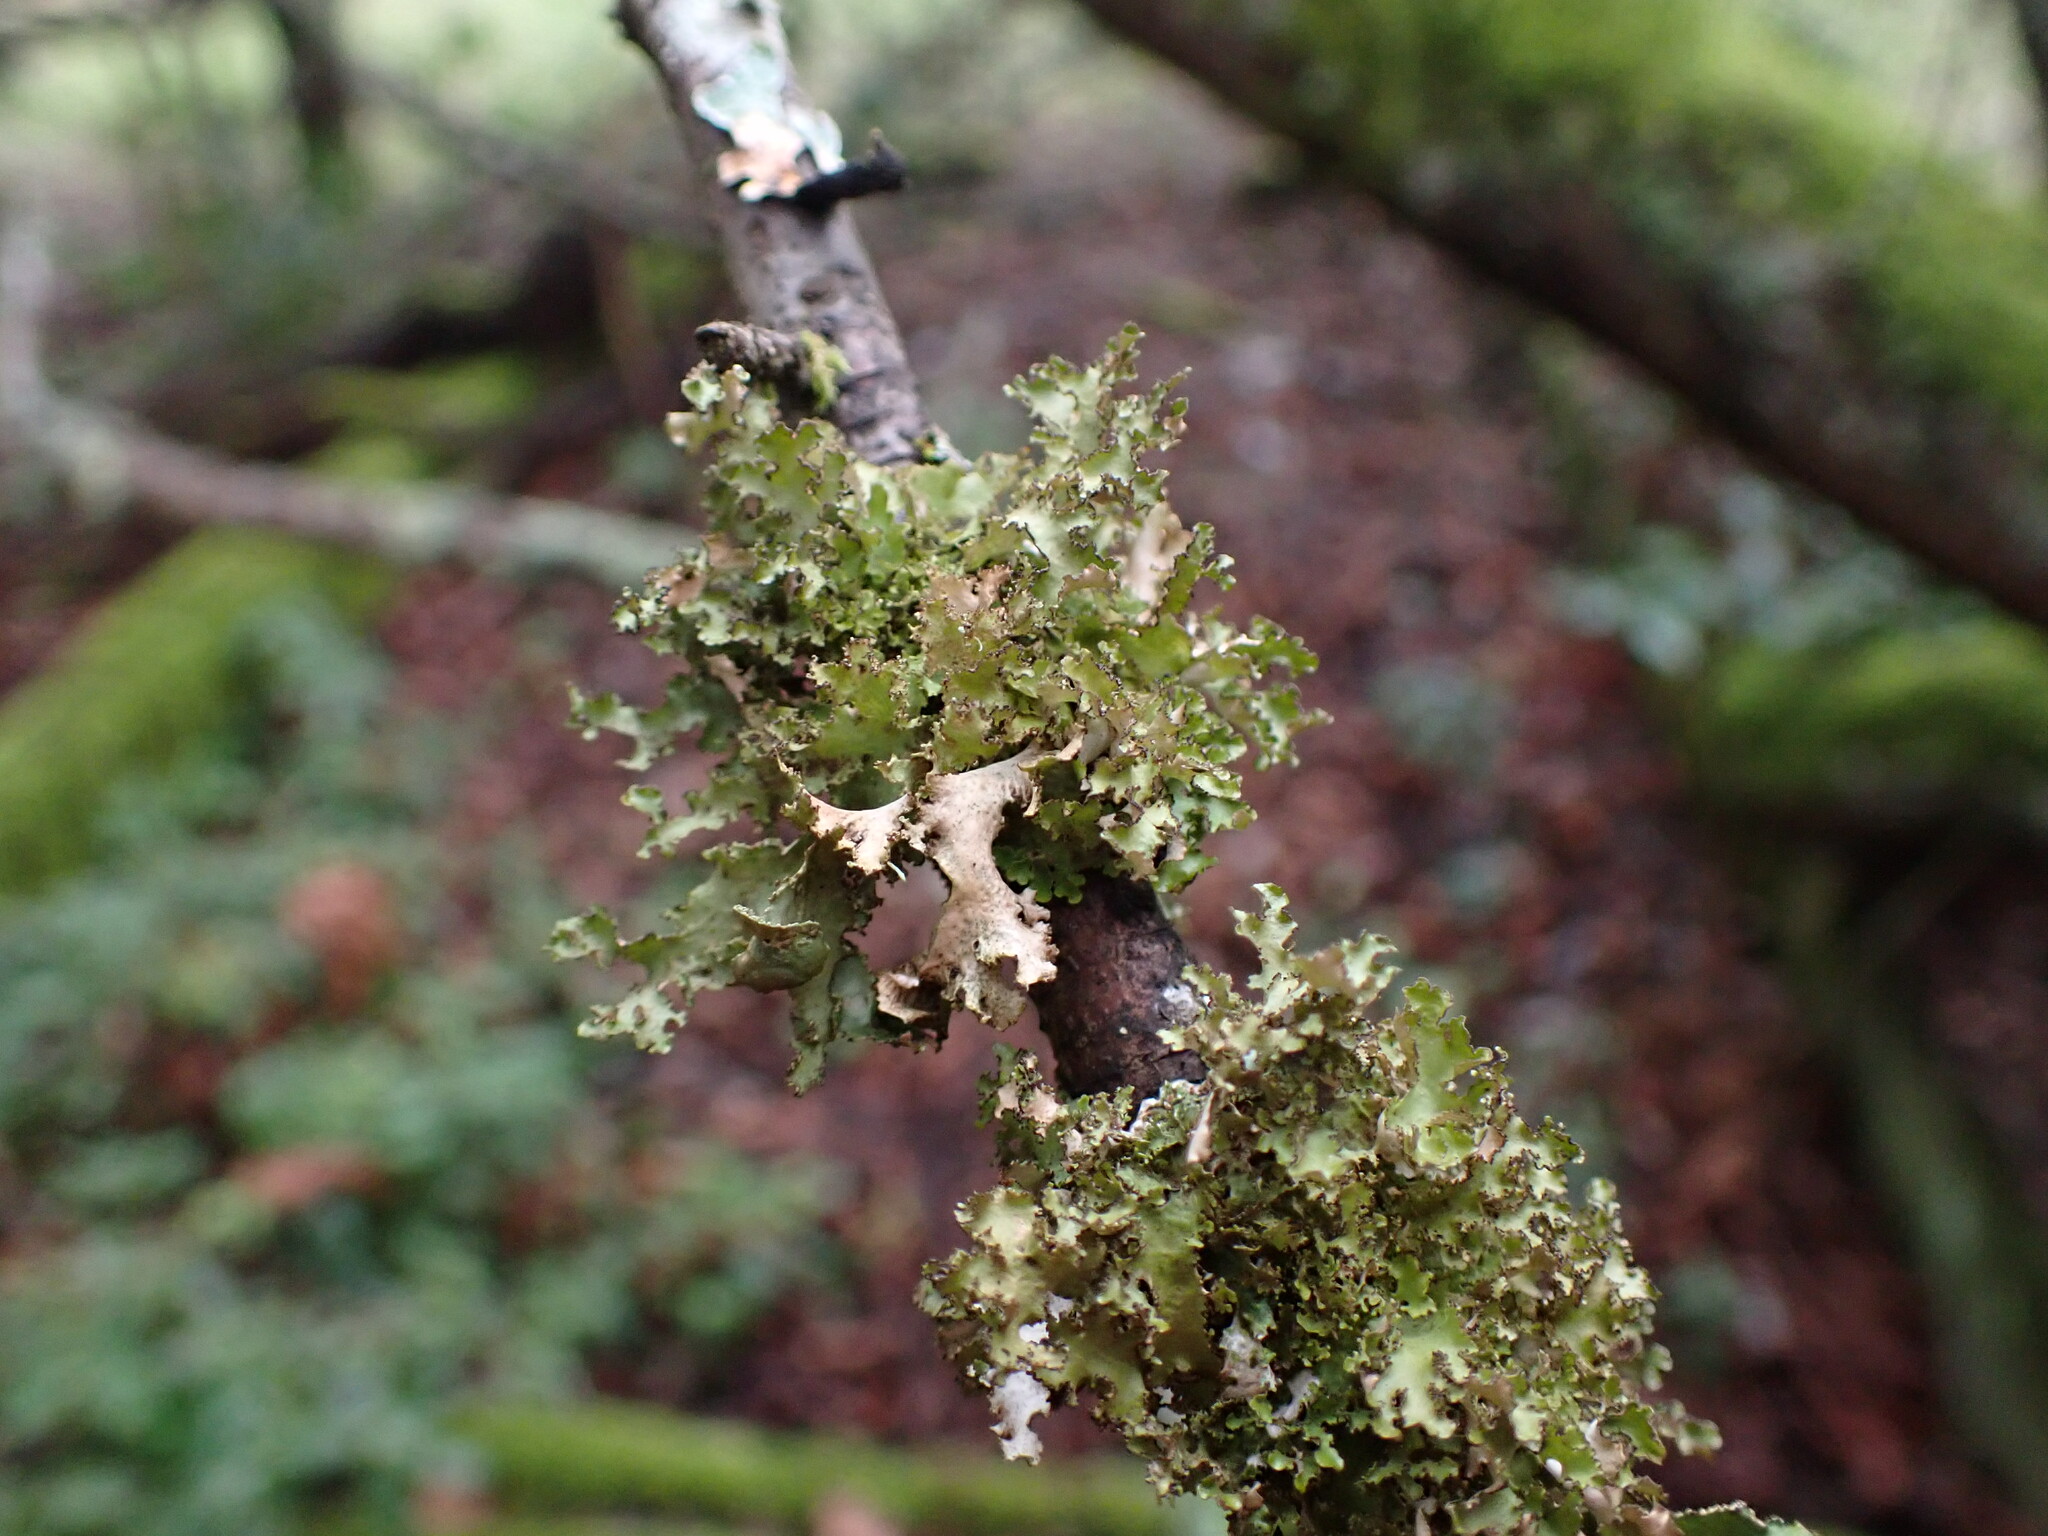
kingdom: Fungi
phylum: Ascomycota
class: Lecanoromycetes
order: Lecanorales
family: Parmeliaceae
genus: Nephromopsis
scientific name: Nephromopsis chlorophylla
